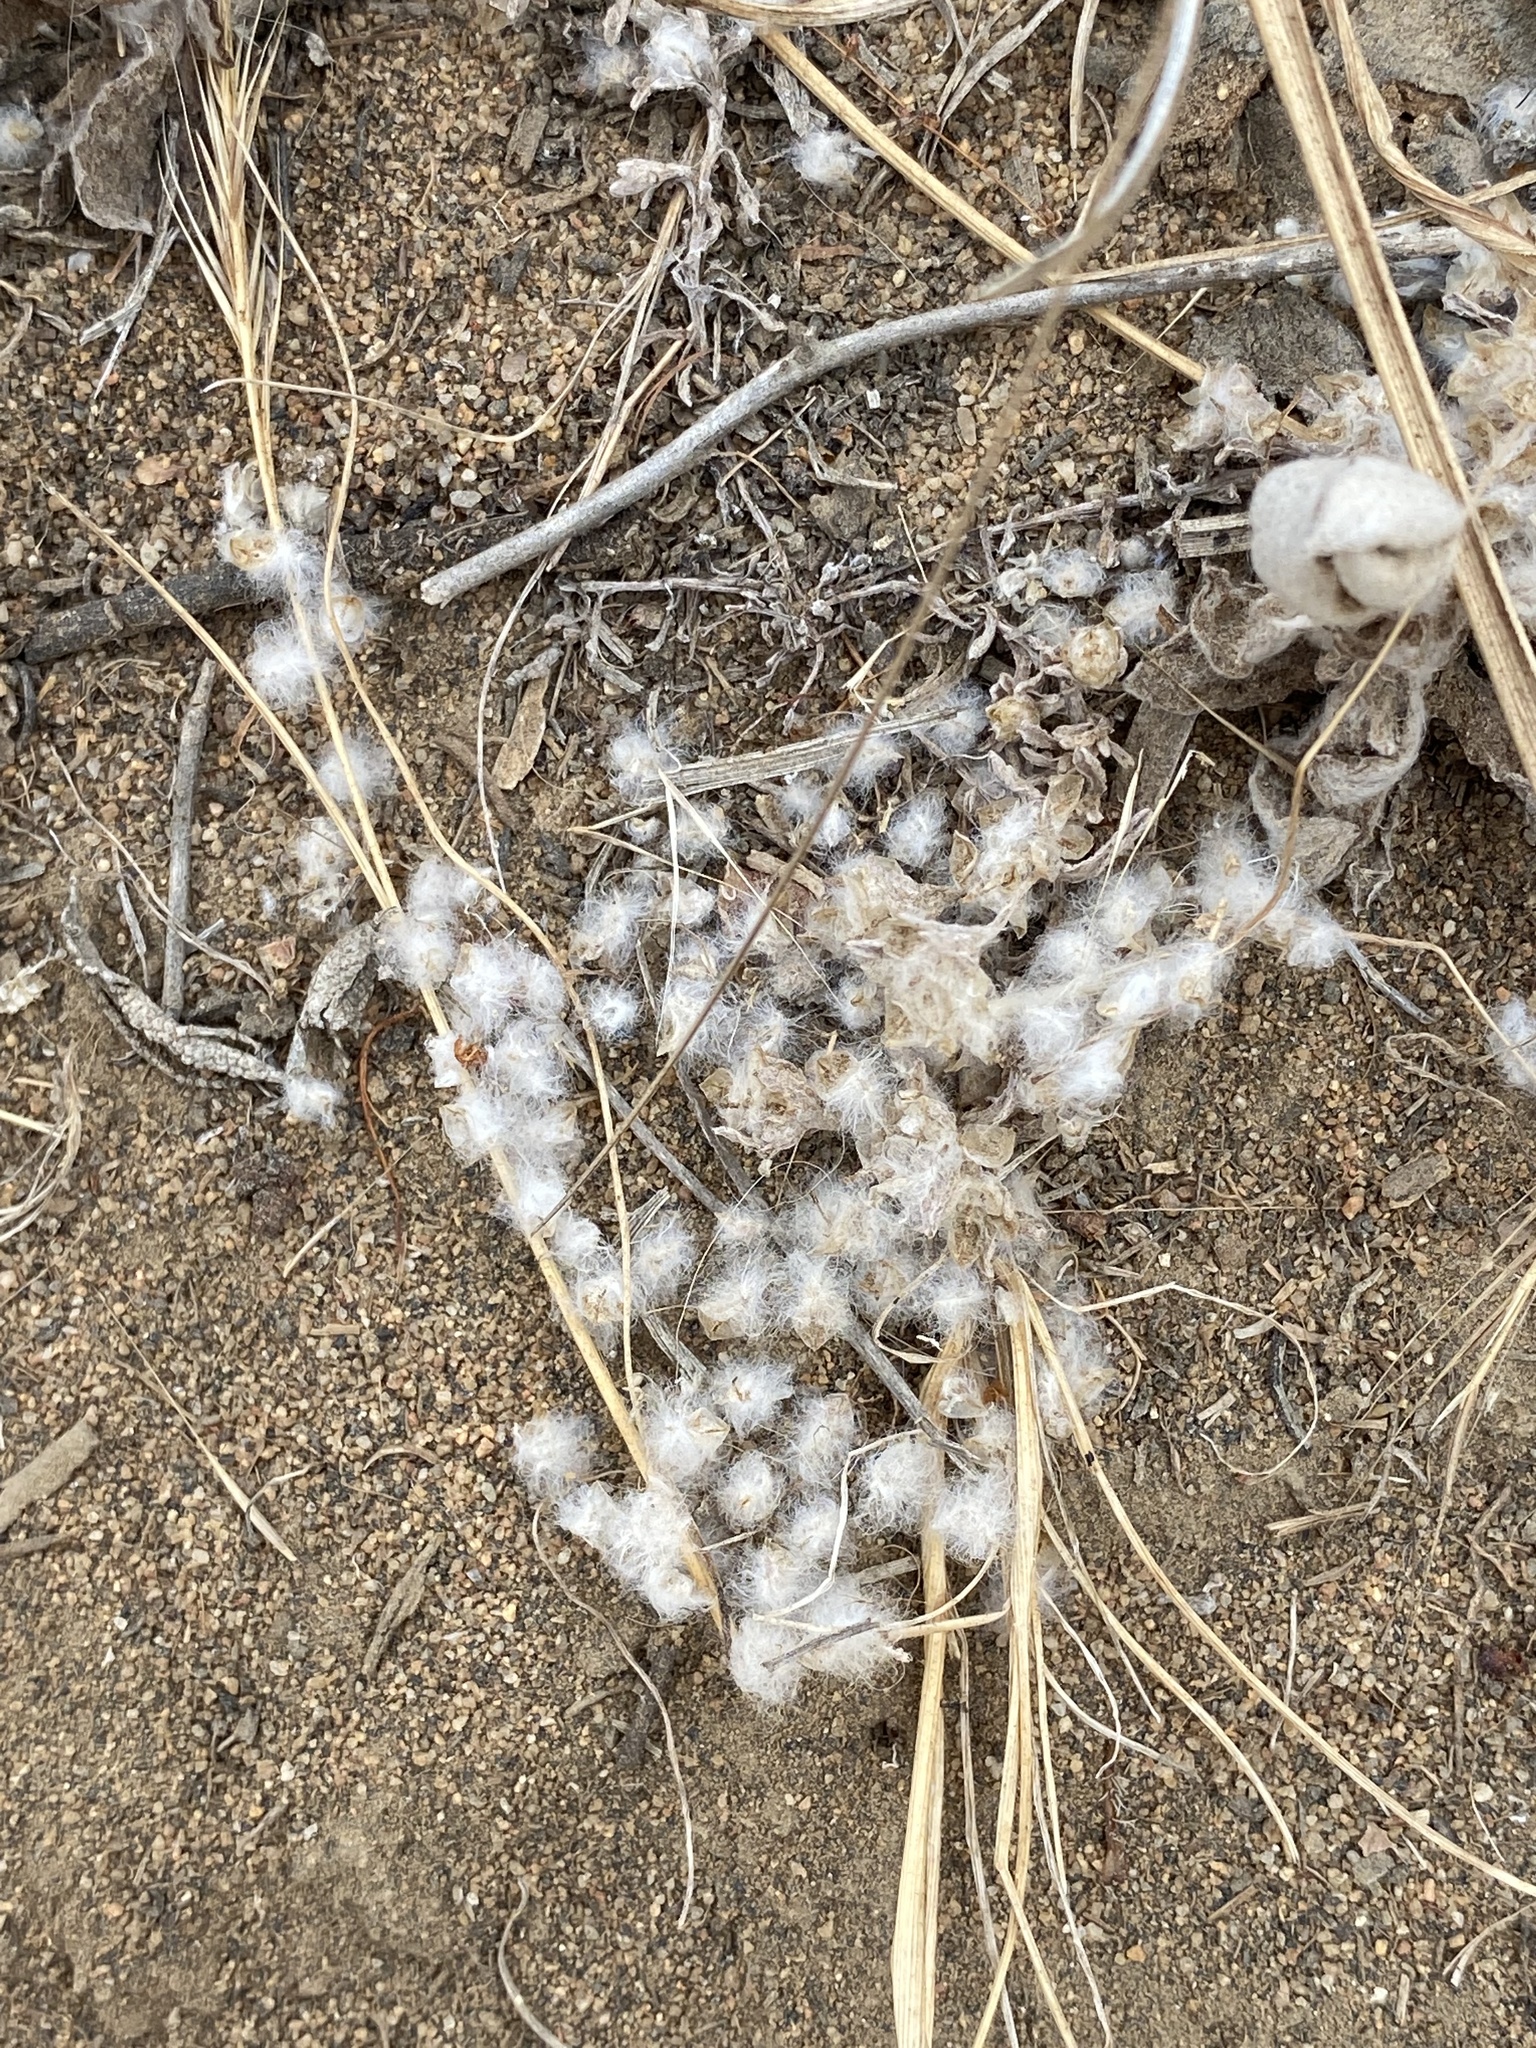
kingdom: Plantae
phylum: Tracheophyta
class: Magnoliopsida
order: Asterales
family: Asteraceae
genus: Stylocline
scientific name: Stylocline gnaphaloides
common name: Everlasting nest-straw
